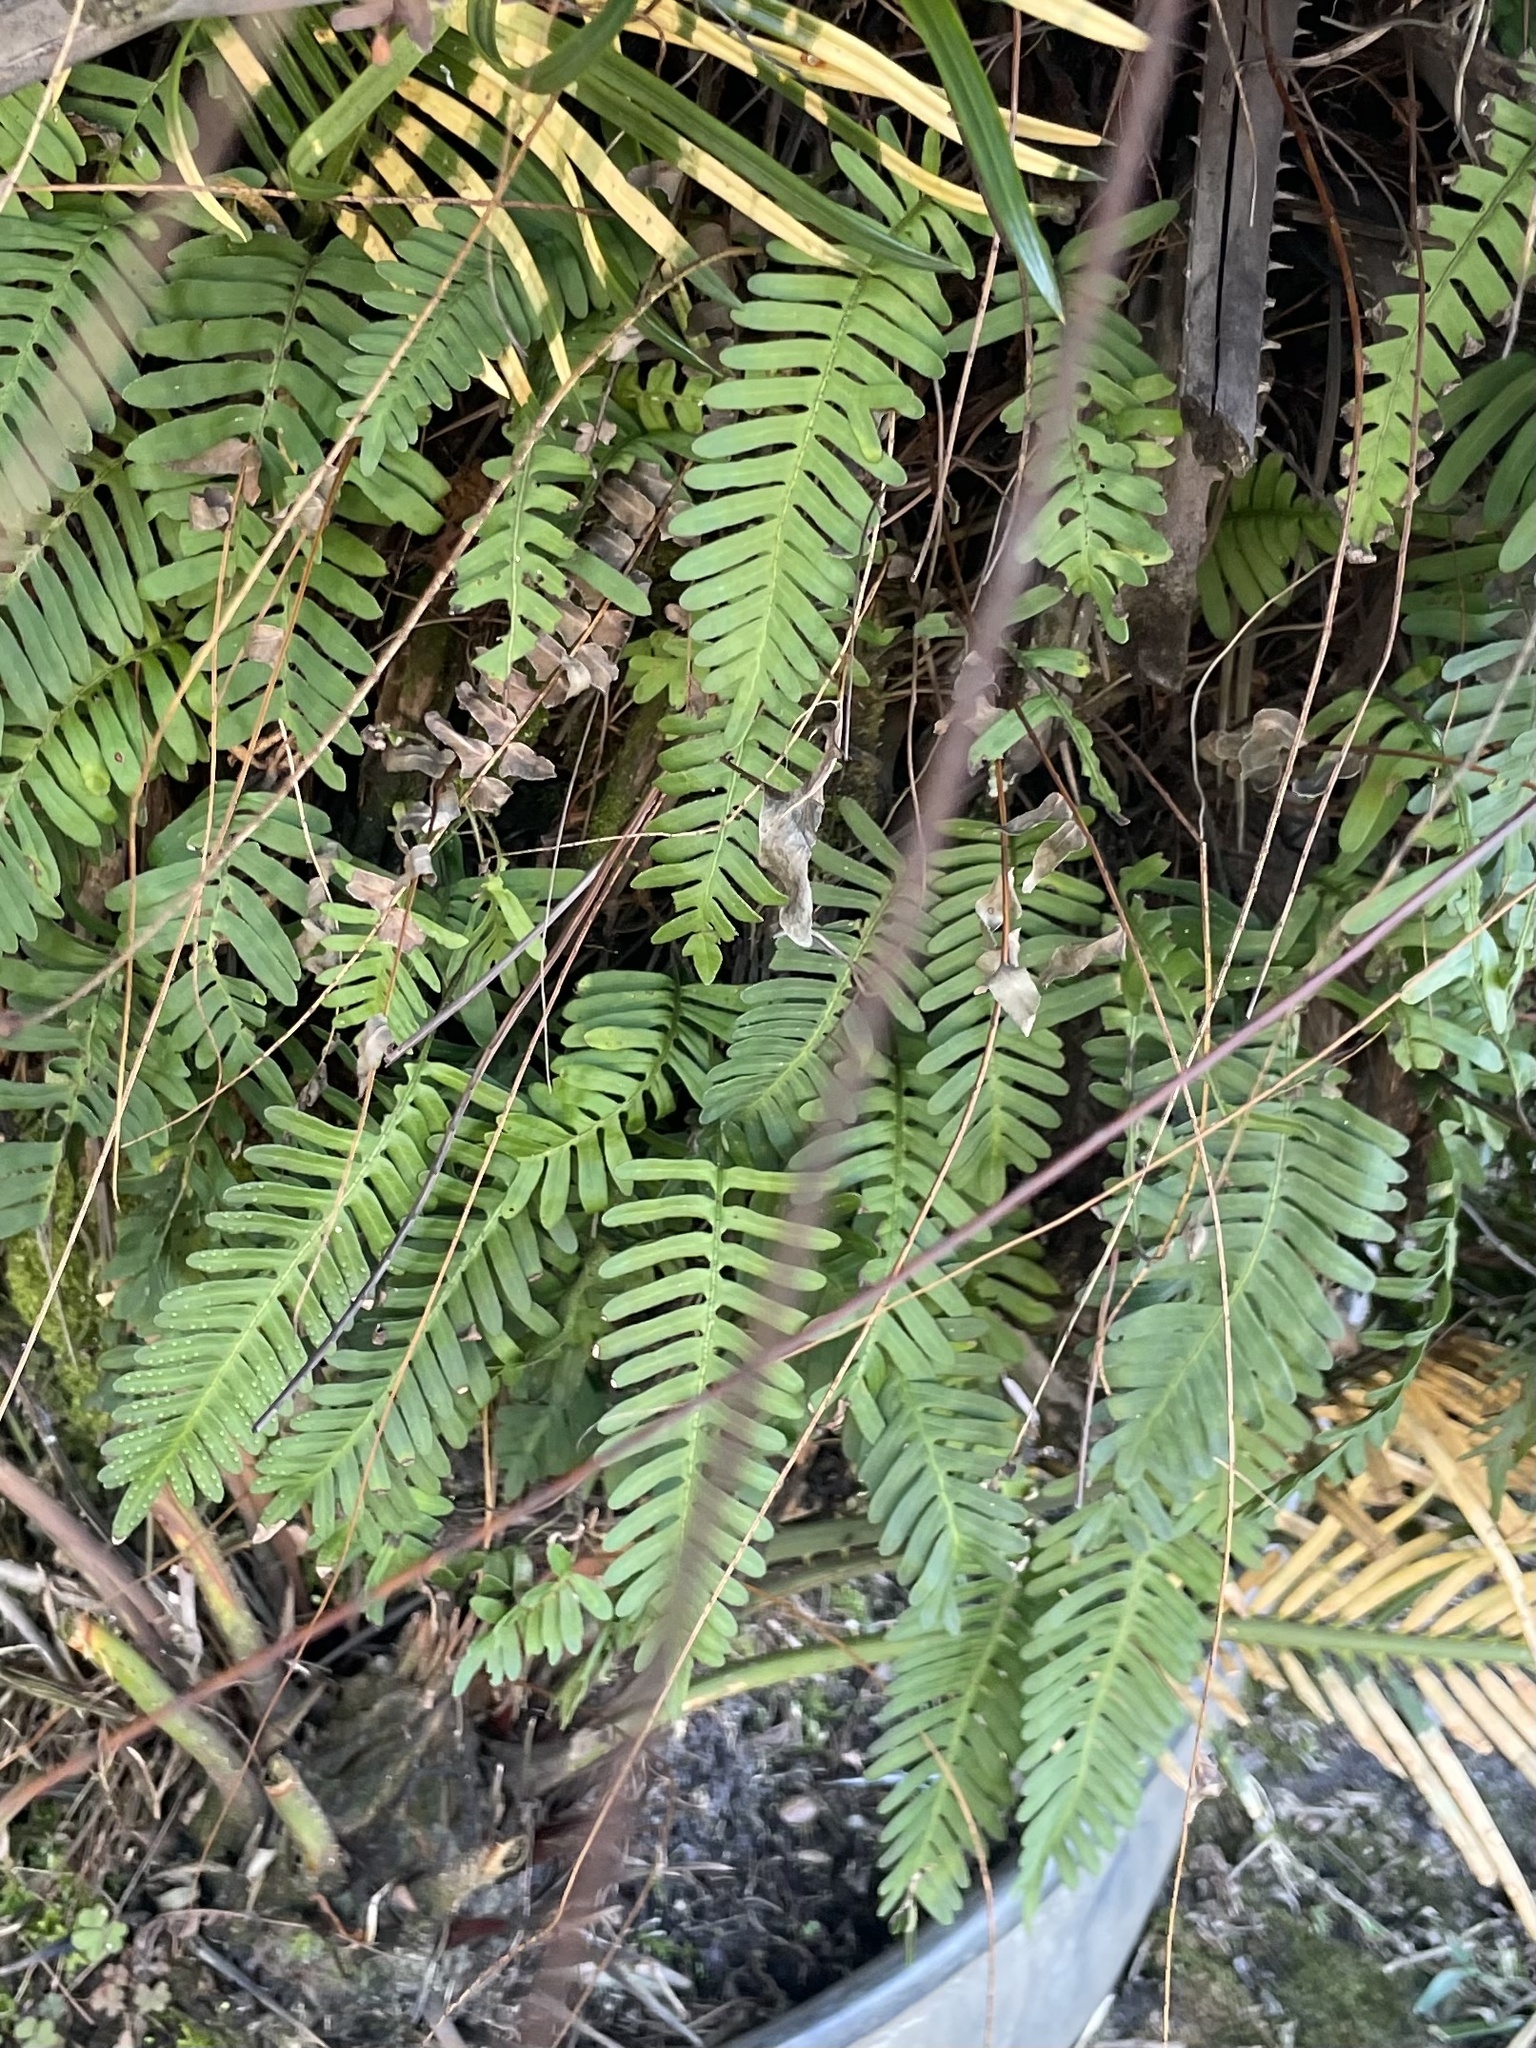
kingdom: Plantae
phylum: Tracheophyta
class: Polypodiopsida
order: Polypodiales
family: Polypodiaceae
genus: Pleopeltis
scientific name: Pleopeltis michauxiana
